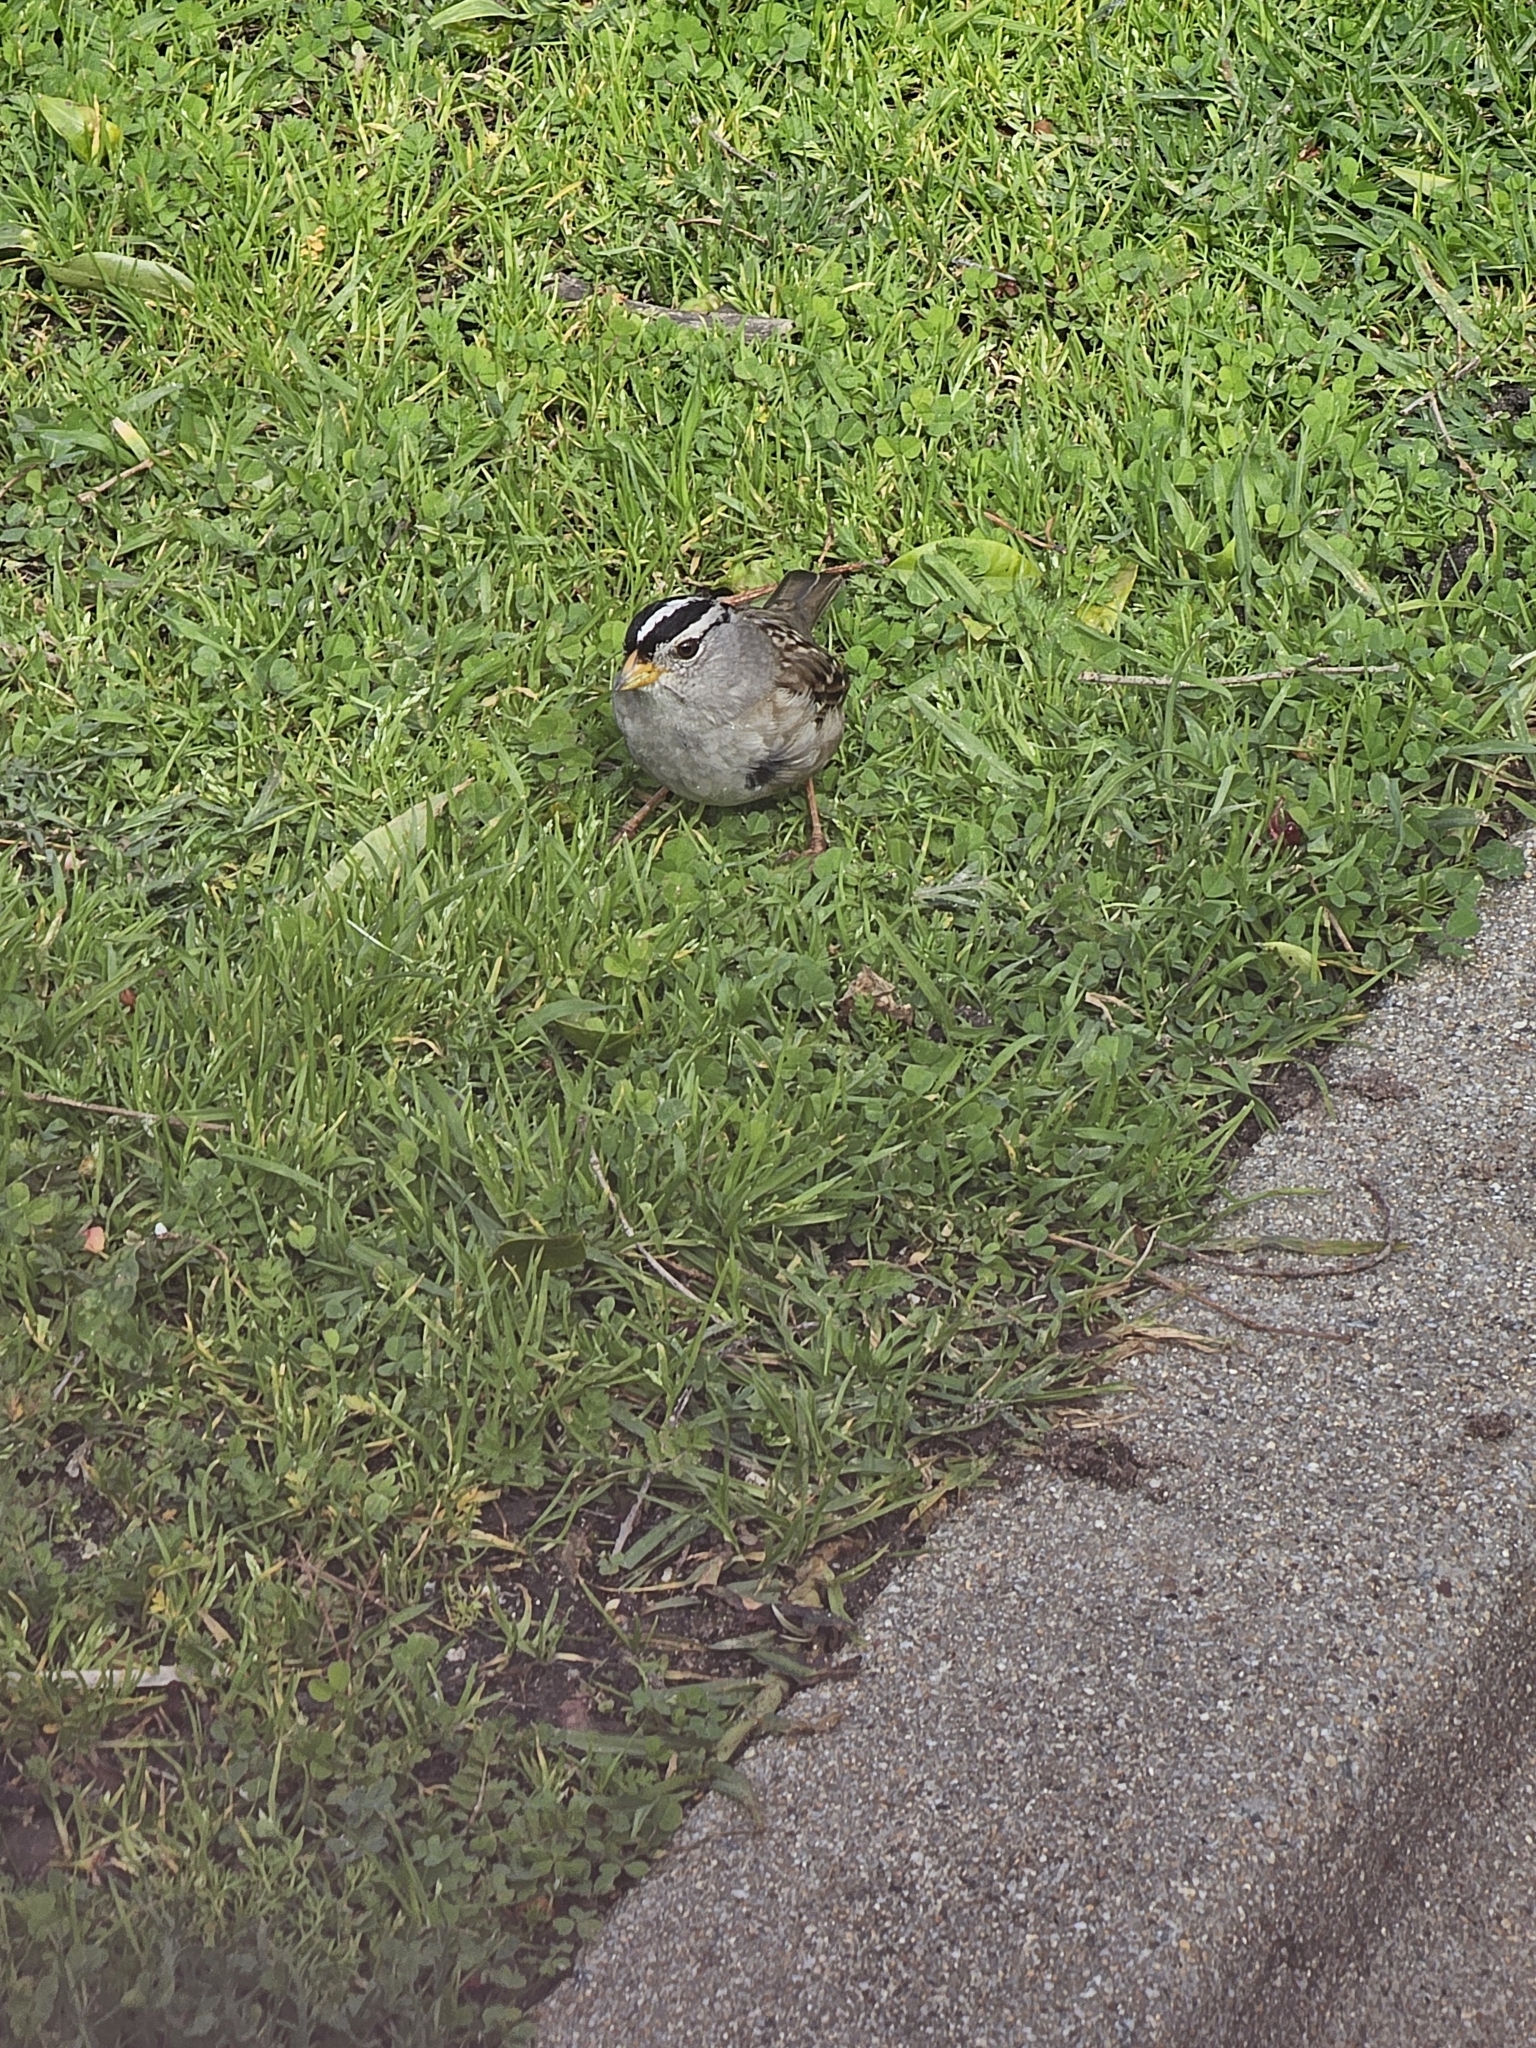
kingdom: Animalia
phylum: Chordata
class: Aves
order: Passeriformes
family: Passerellidae
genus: Zonotrichia
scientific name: Zonotrichia leucophrys
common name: White-crowned sparrow
